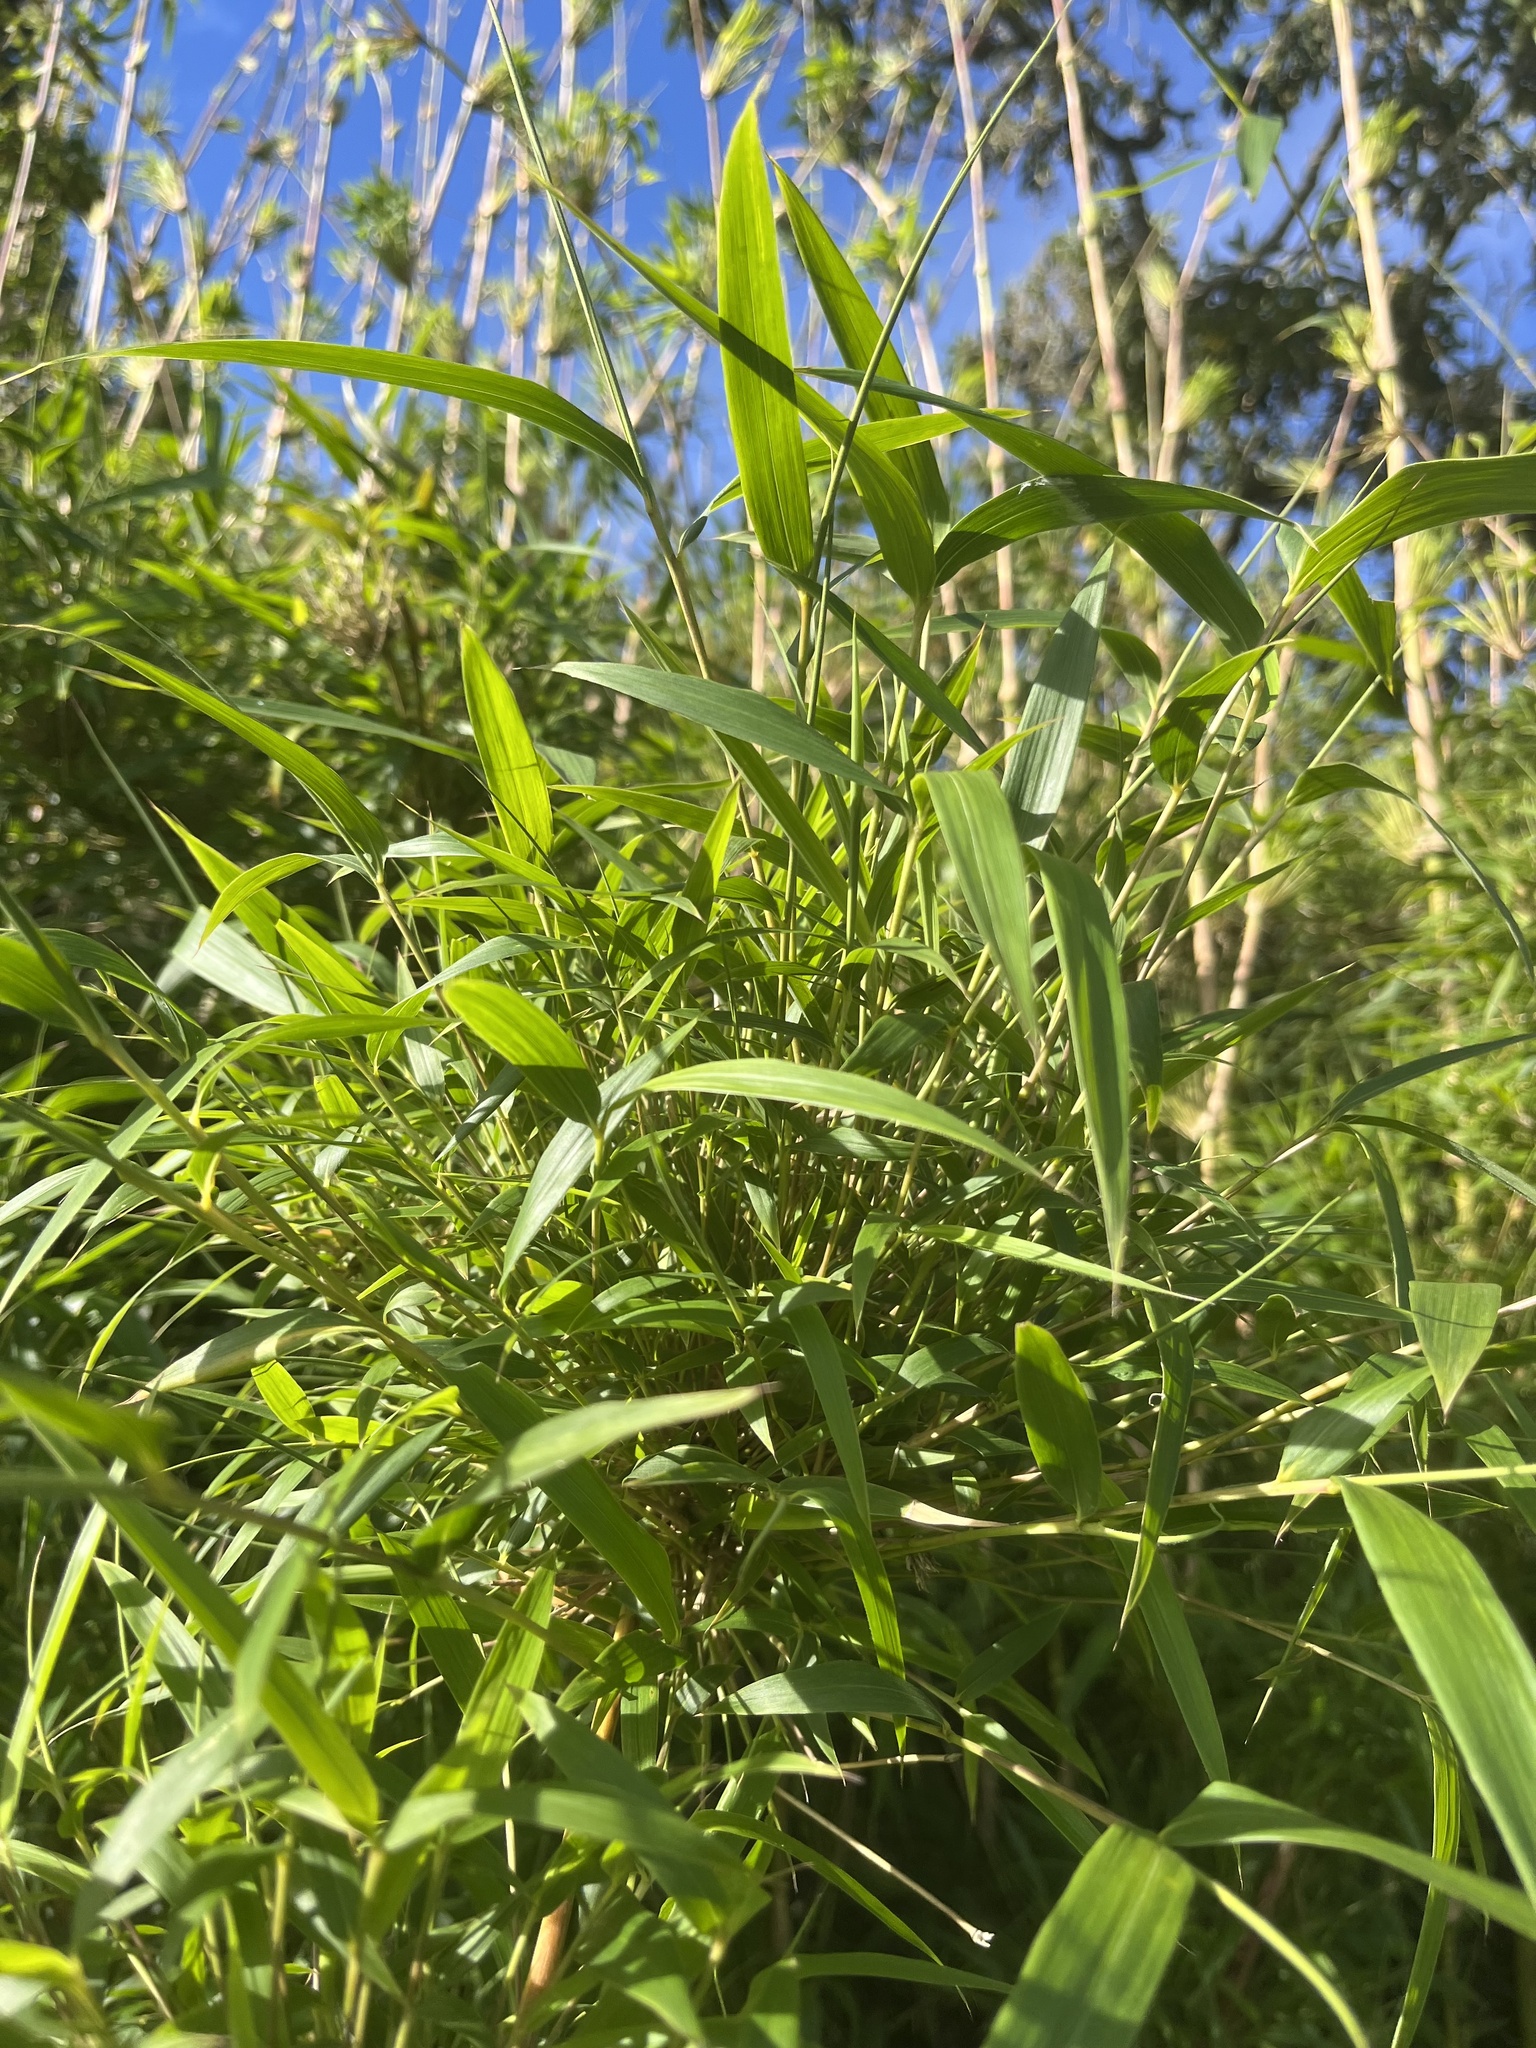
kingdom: Plantae
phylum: Tracheophyta
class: Liliopsida
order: Poales
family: Poaceae
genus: Chusquea
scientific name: Chusquea scandens
